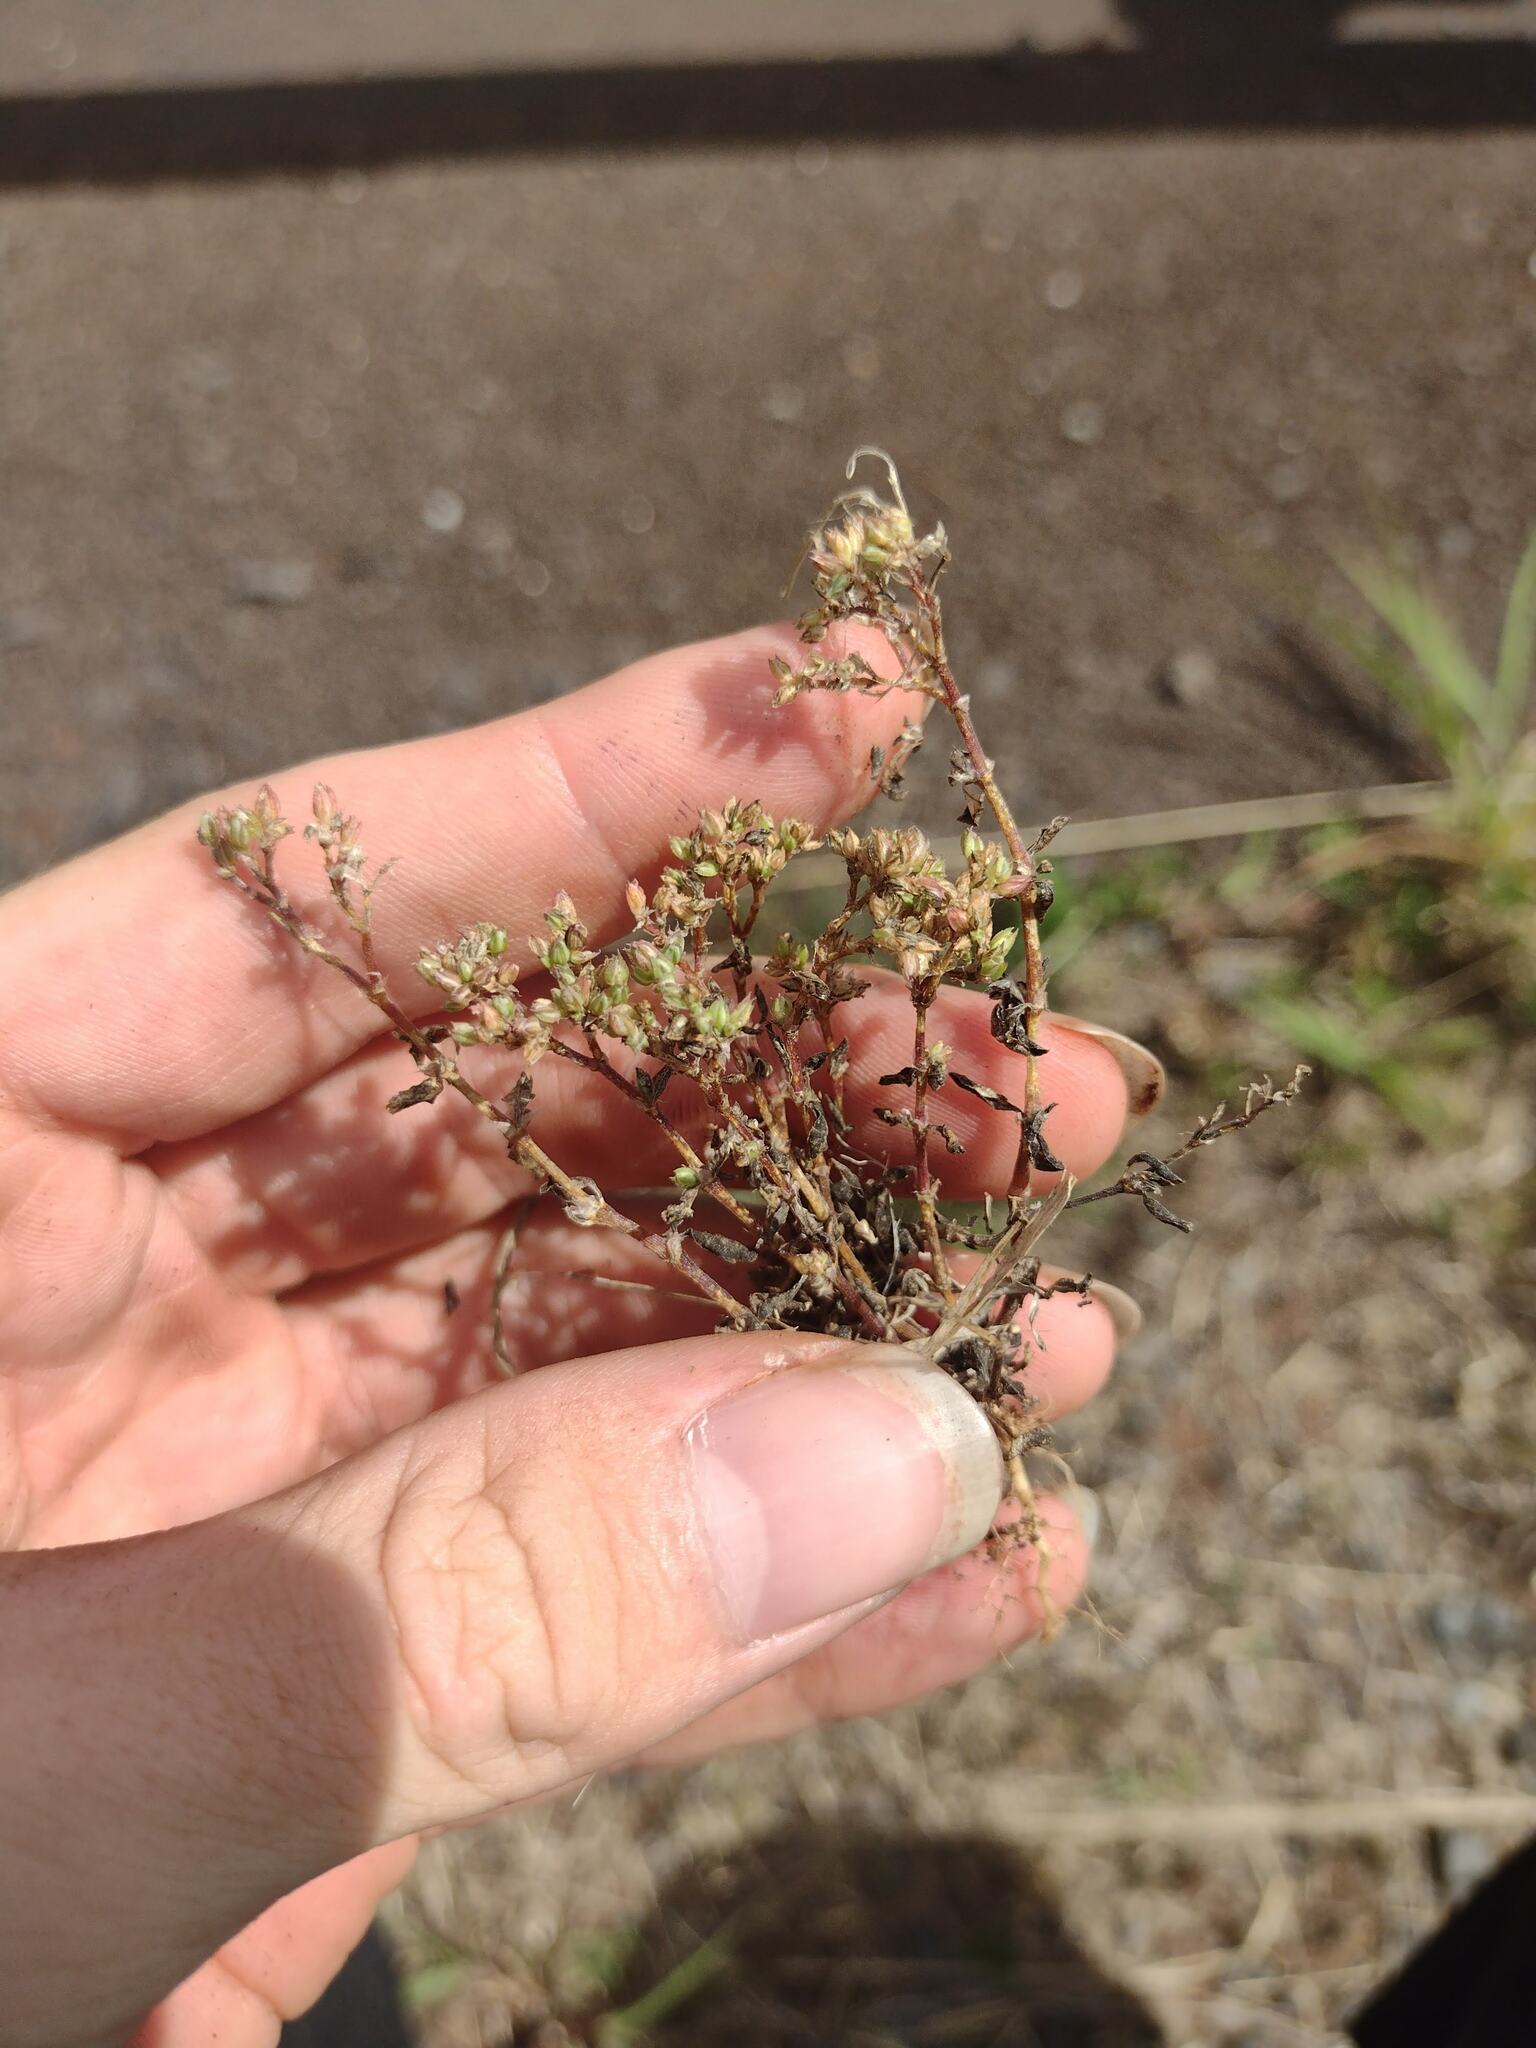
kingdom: Plantae
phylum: Tracheophyta
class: Magnoliopsida
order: Caryophyllales
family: Caryophyllaceae
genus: Polycarpon
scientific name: Polycarpon tetraphyllum
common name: Four-leaved all-seed
